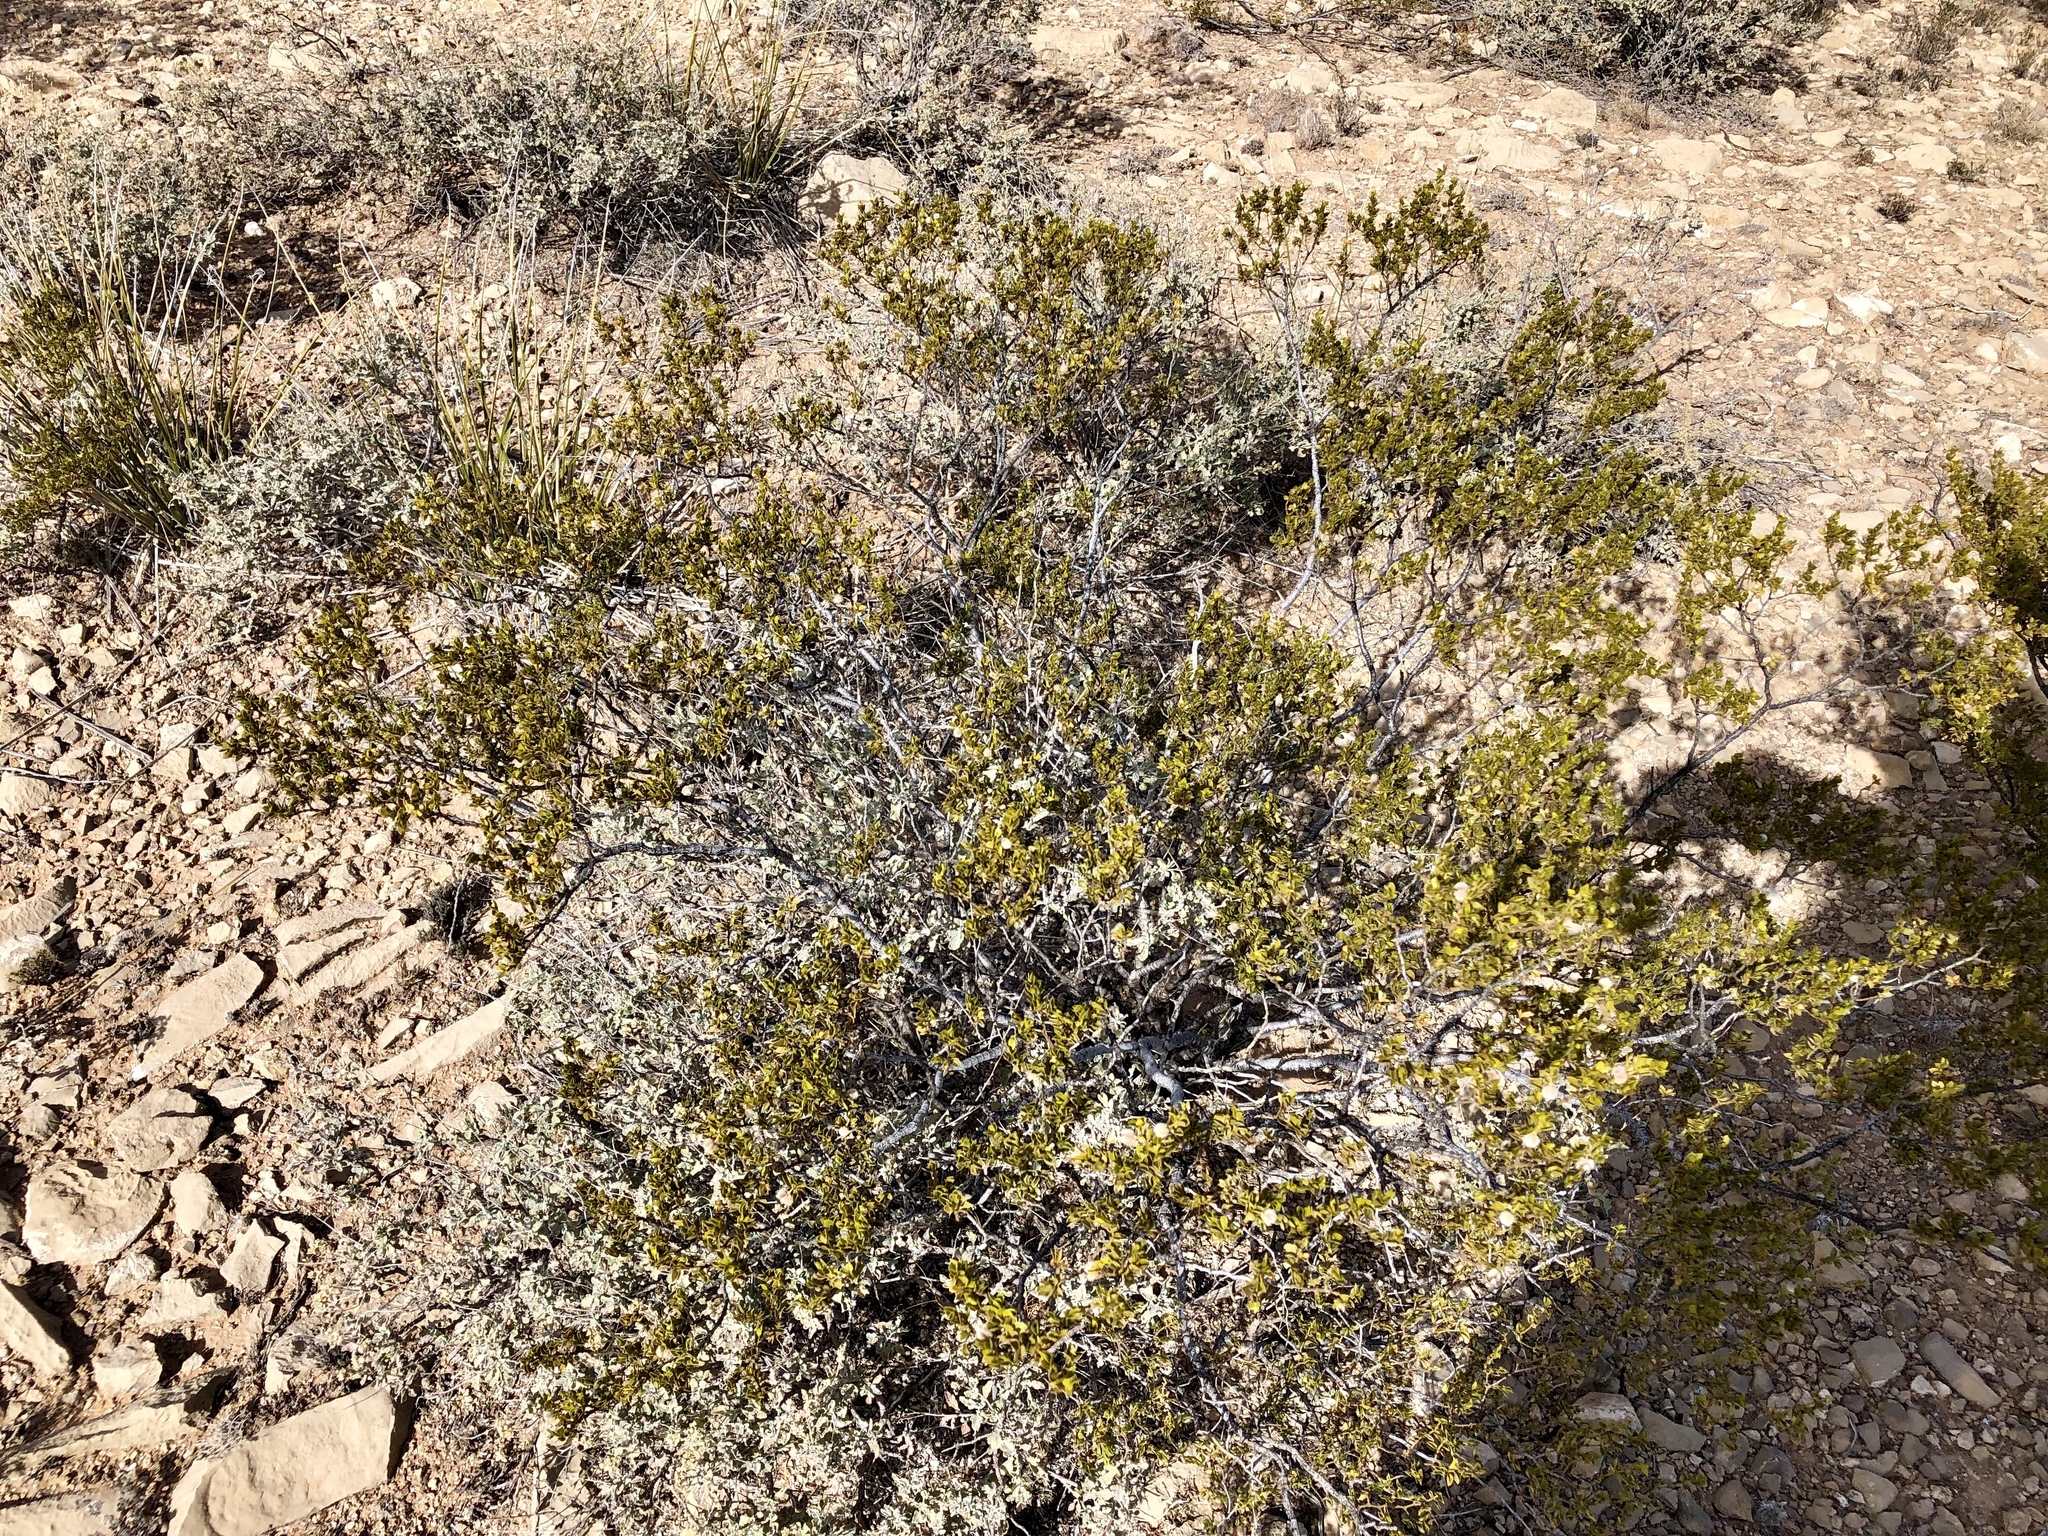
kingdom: Plantae
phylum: Tracheophyta
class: Magnoliopsida
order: Zygophyllales
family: Zygophyllaceae
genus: Larrea
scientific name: Larrea tridentata
